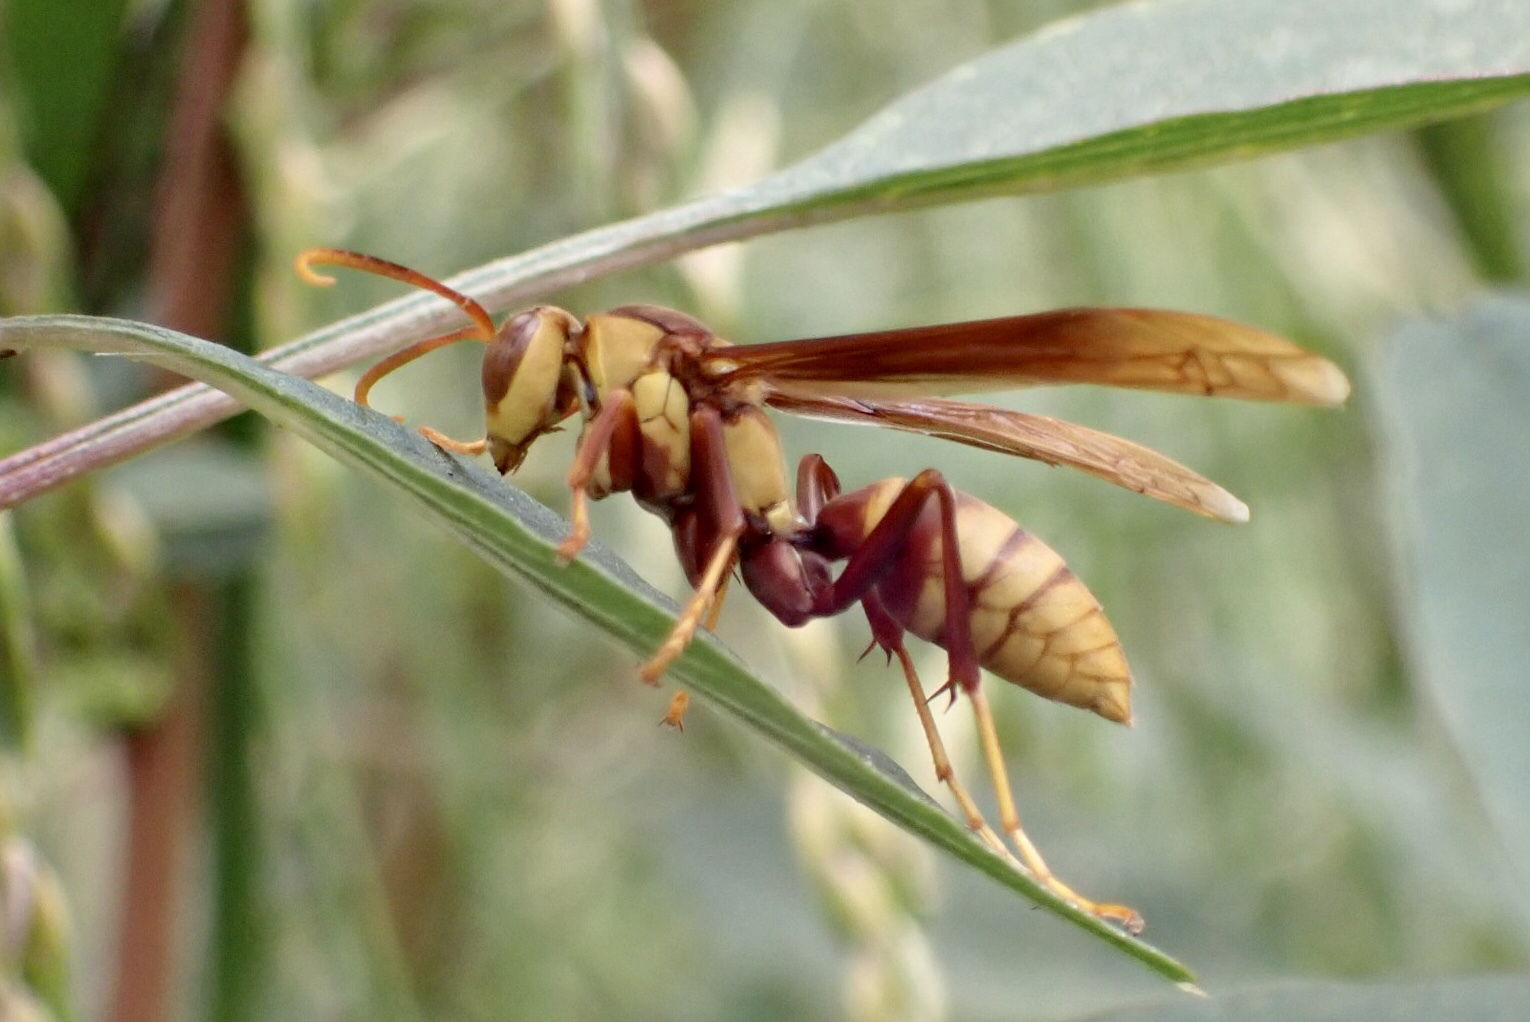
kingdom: Animalia
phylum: Arthropoda
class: Insecta
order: Hymenoptera
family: Eumenidae
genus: Polistes
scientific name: Polistes major
